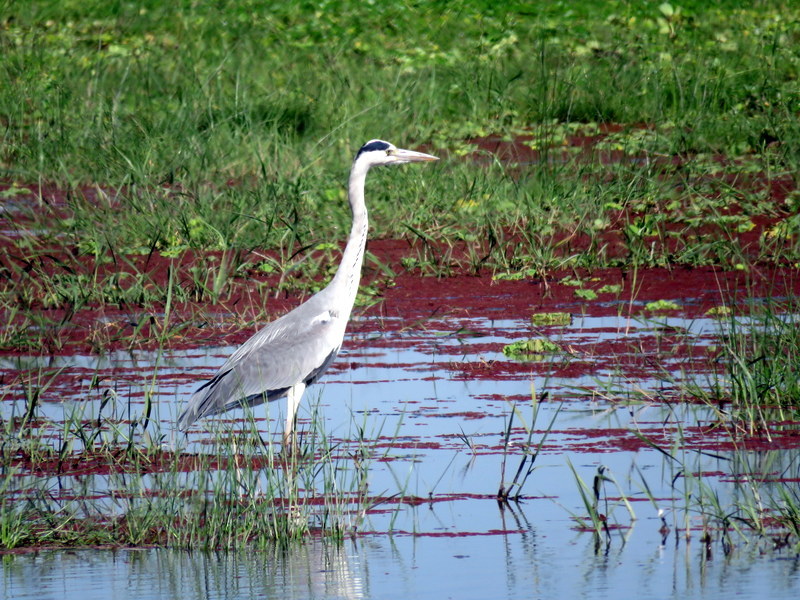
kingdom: Animalia
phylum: Chordata
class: Aves
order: Pelecaniformes
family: Ardeidae
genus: Ardea
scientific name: Ardea cinerea
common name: Grey heron
